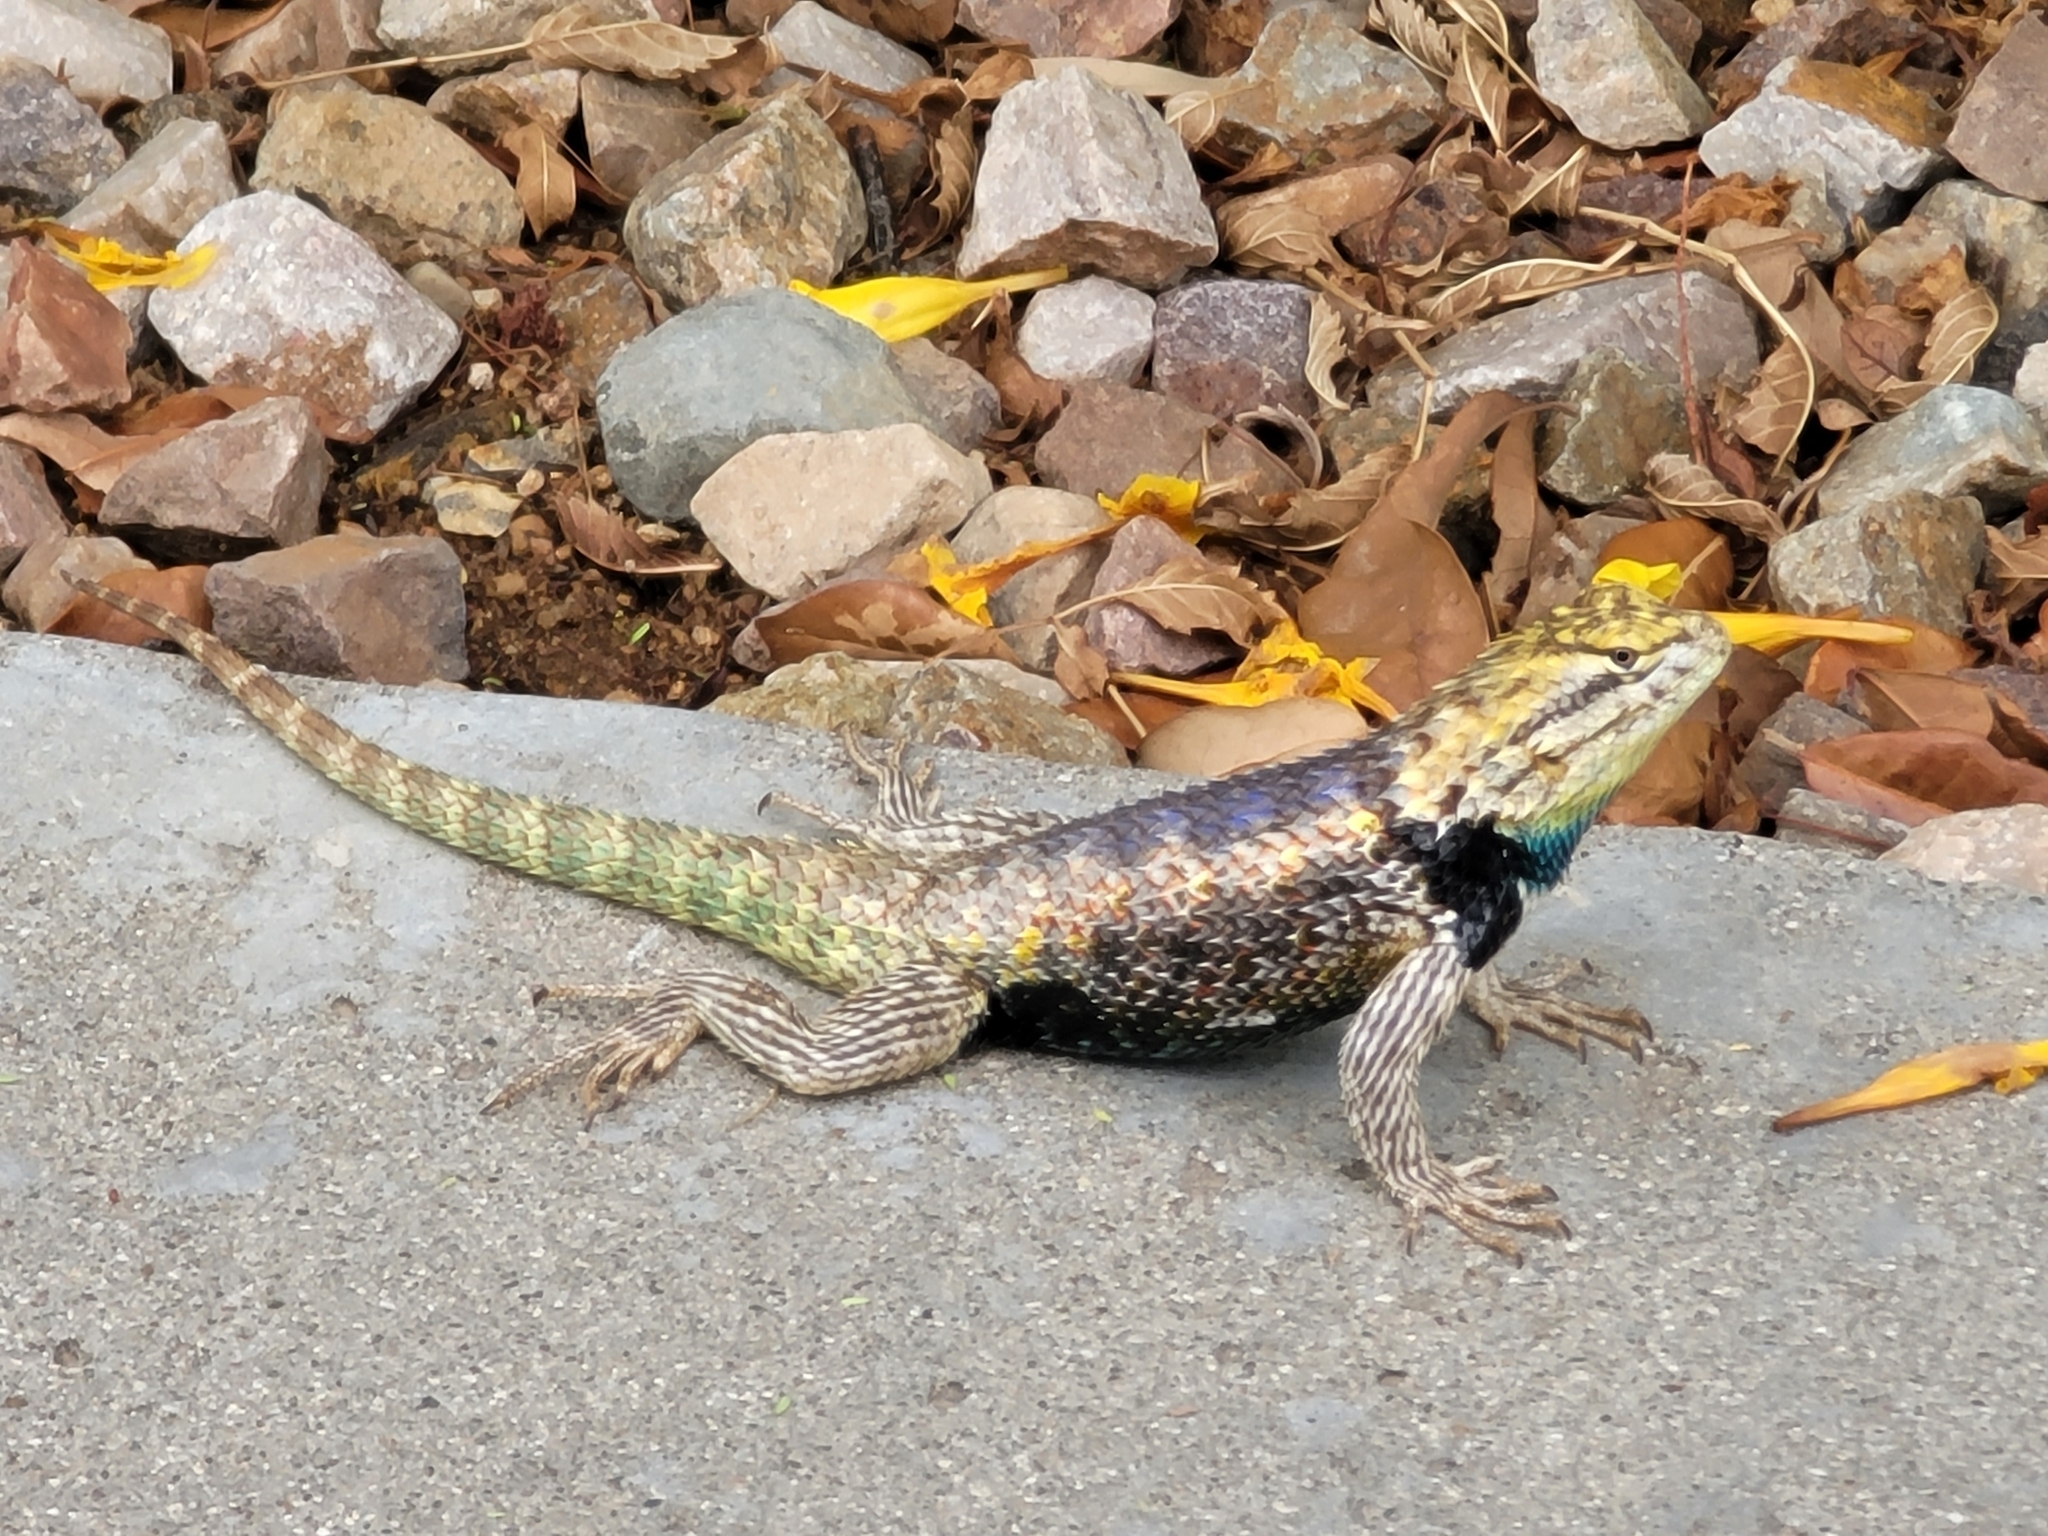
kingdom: Animalia
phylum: Chordata
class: Squamata
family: Phrynosomatidae
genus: Sceloporus
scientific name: Sceloporus magister
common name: Desert spiny lizard
